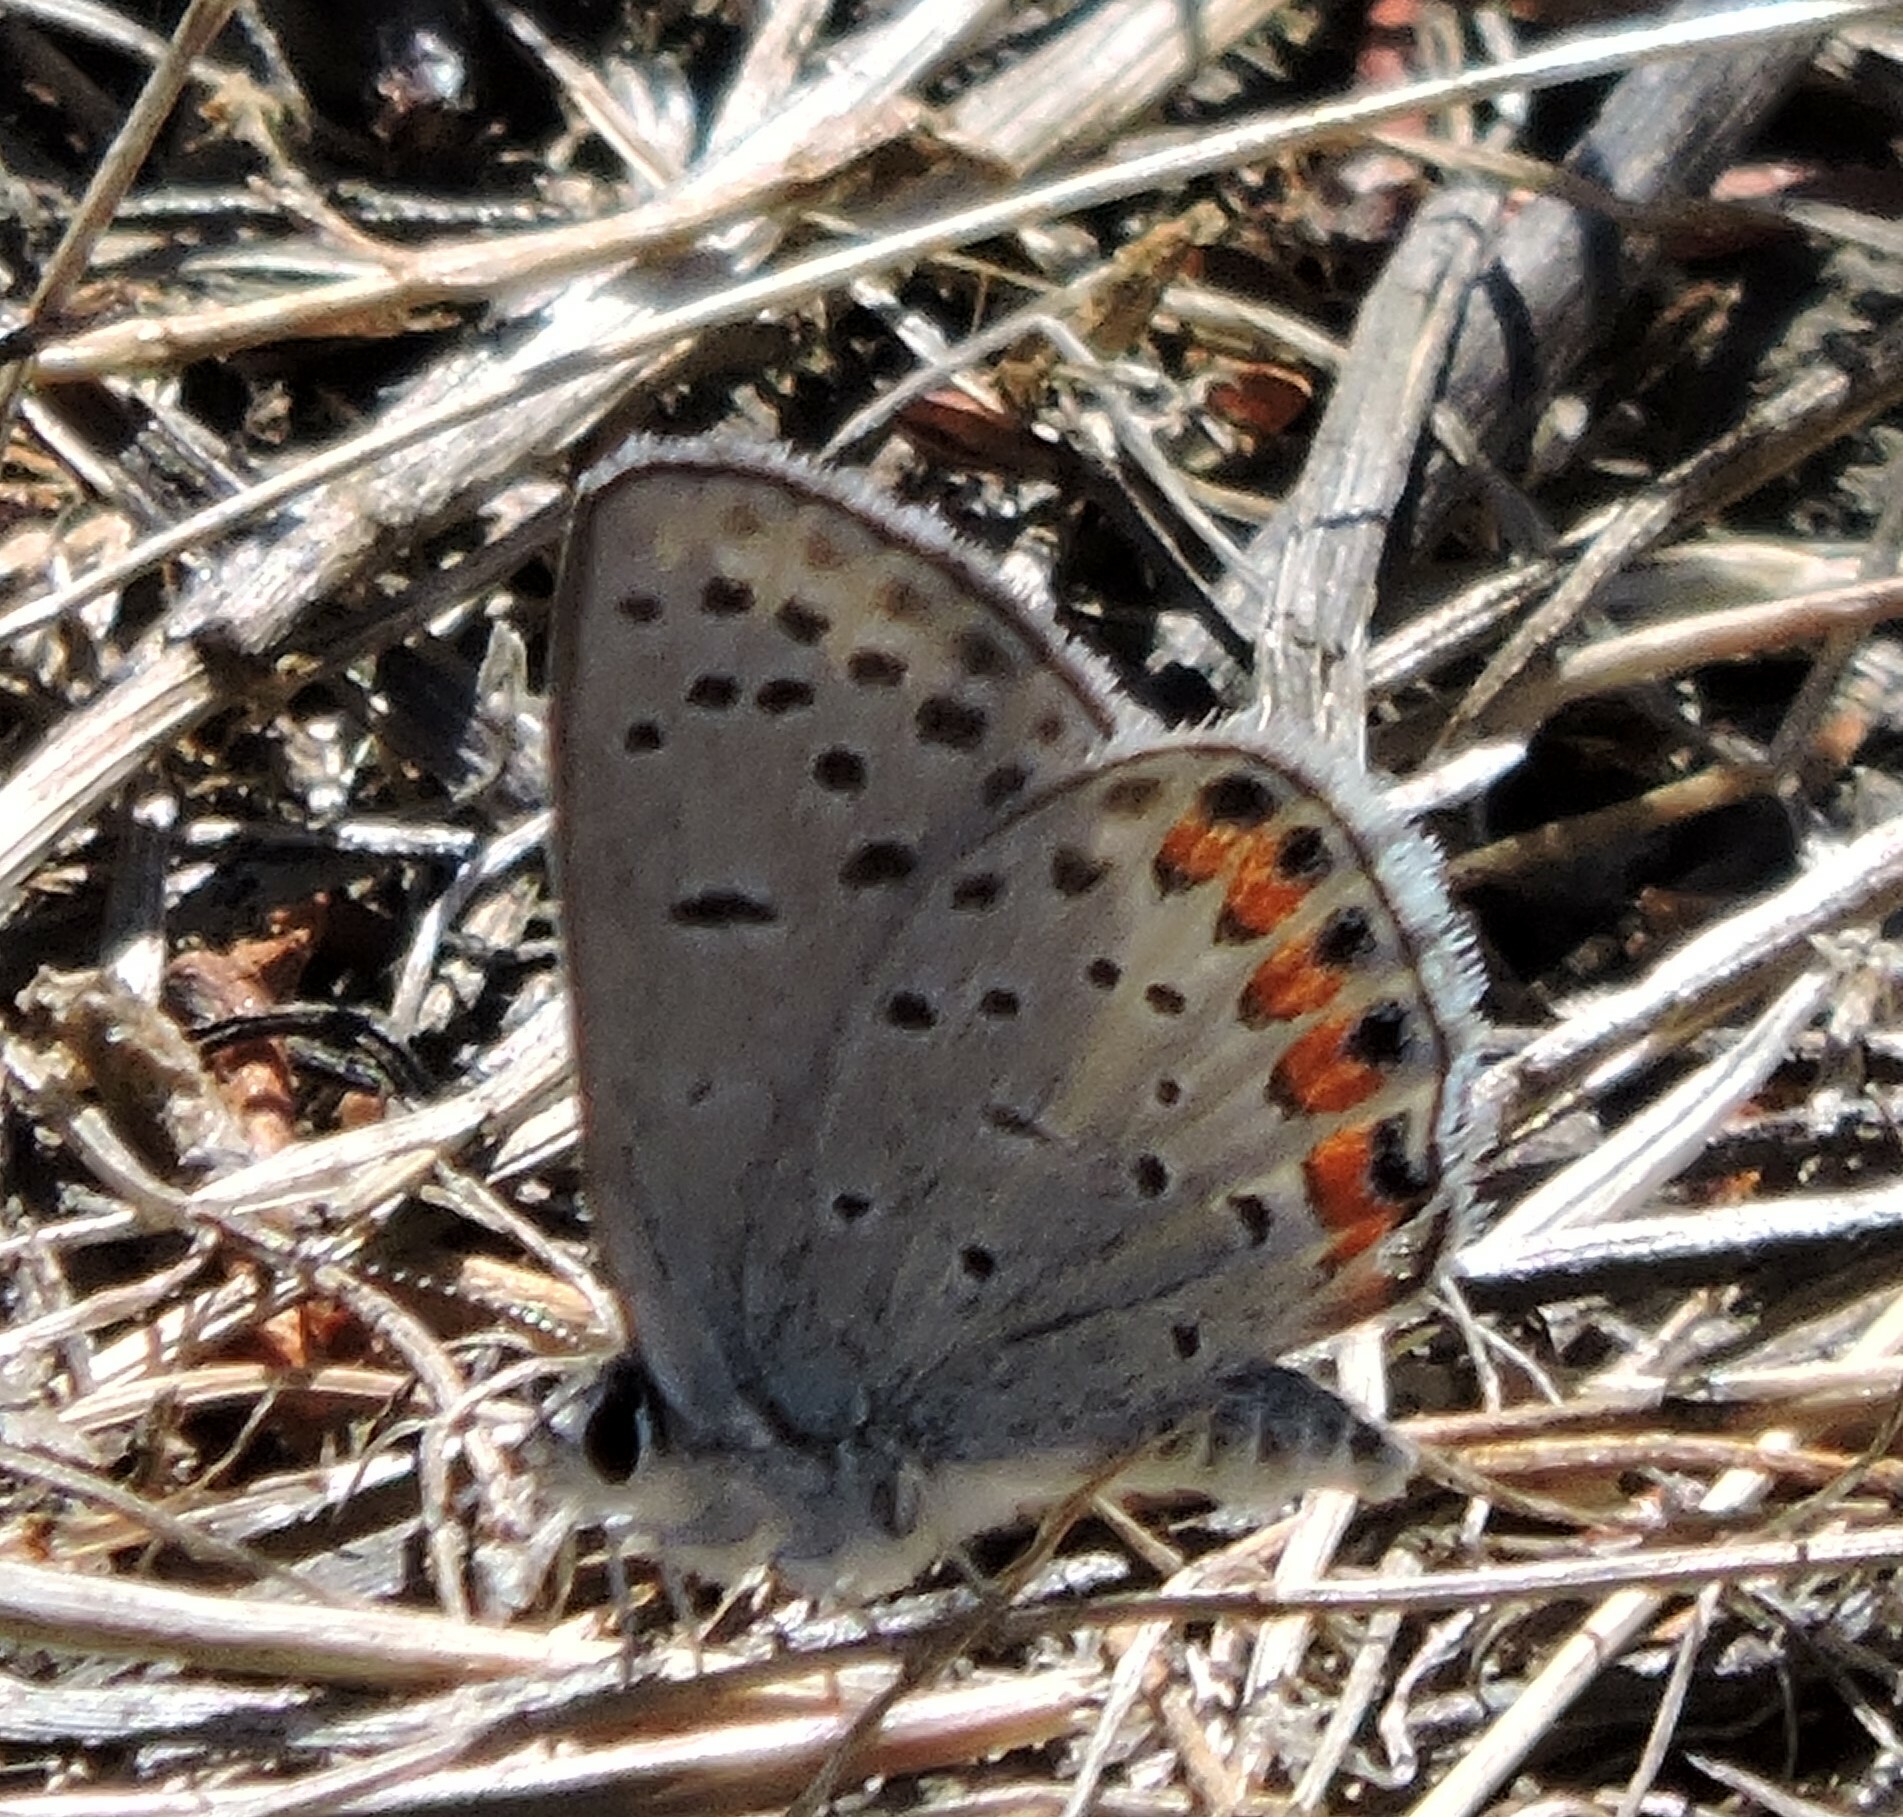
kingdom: Animalia
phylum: Arthropoda
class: Insecta
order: Lepidoptera
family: Lycaenidae
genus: Icaricia
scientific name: Icaricia acmon
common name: Acmon blue
